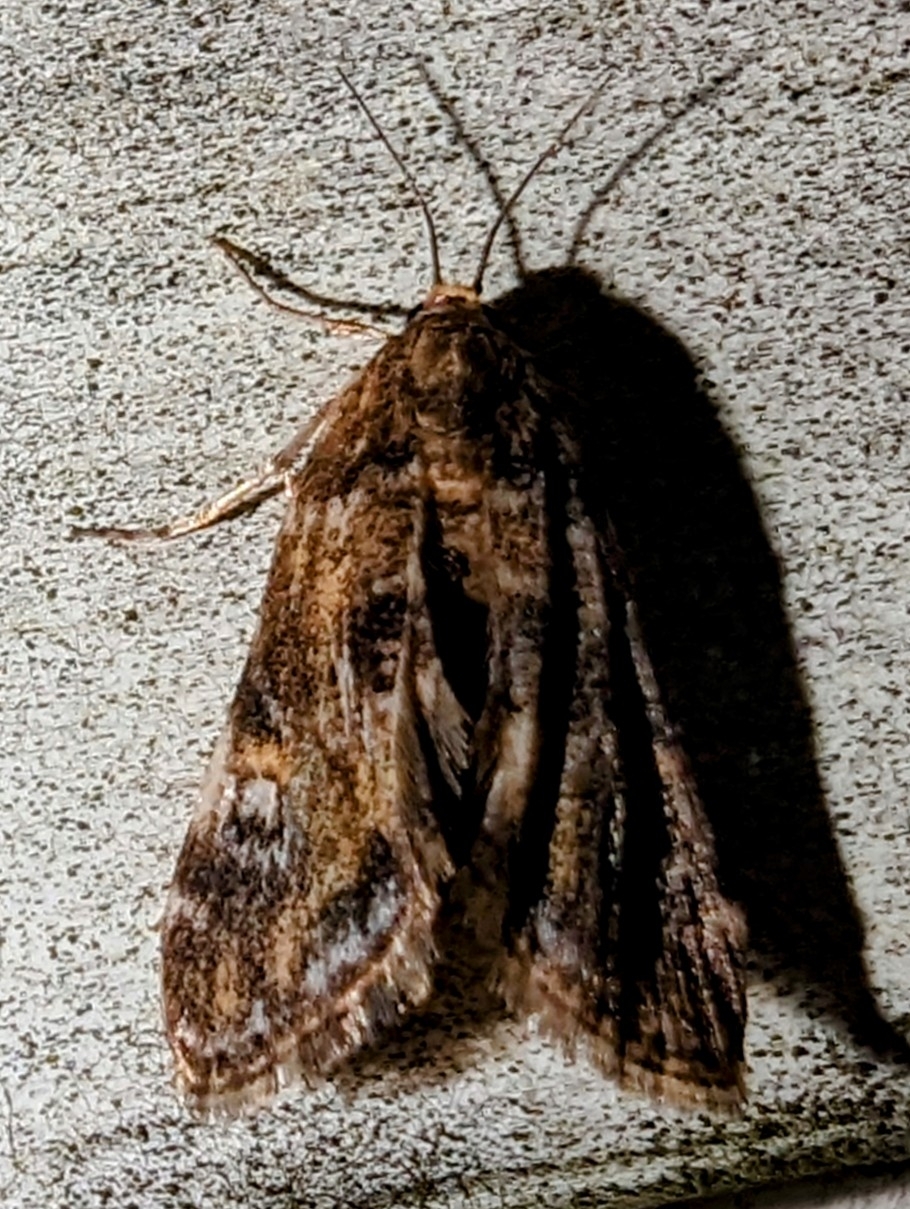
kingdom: Animalia
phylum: Arthropoda
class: Insecta
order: Lepidoptera
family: Crambidae
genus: Elophila
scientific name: Elophila obliteralis
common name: Waterlily leafcutter moth
